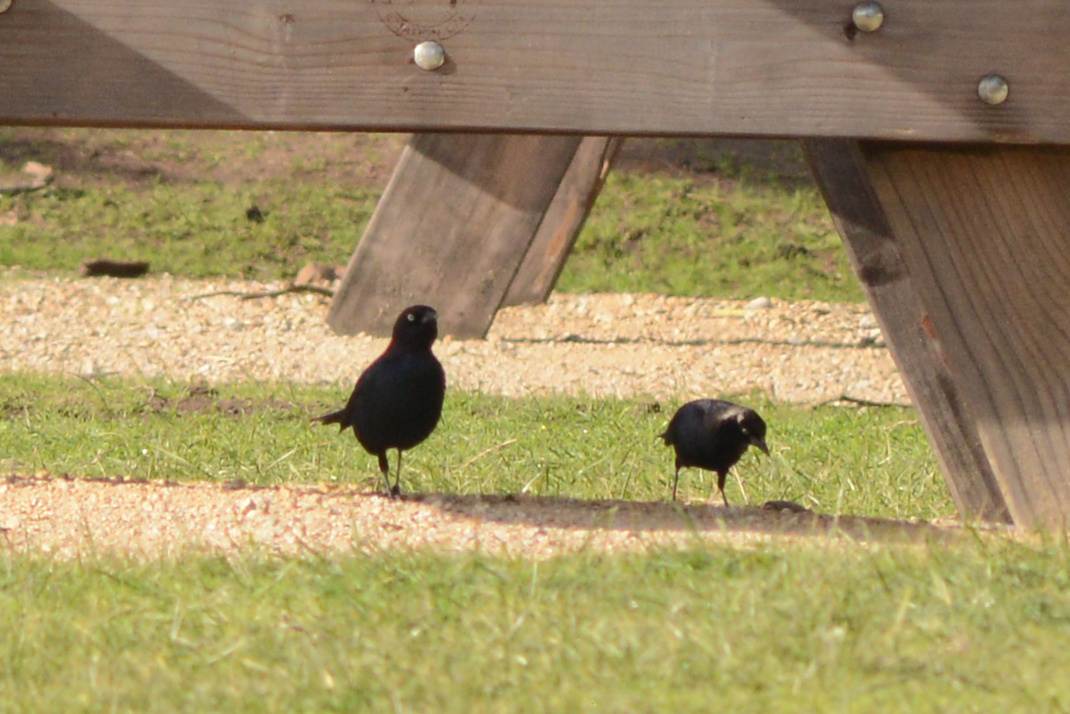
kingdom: Animalia
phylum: Chordata
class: Aves
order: Passeriformes
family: Icteridae
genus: Euphagus
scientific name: Euphagus cyanocephalus
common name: Brewer's blackbird
